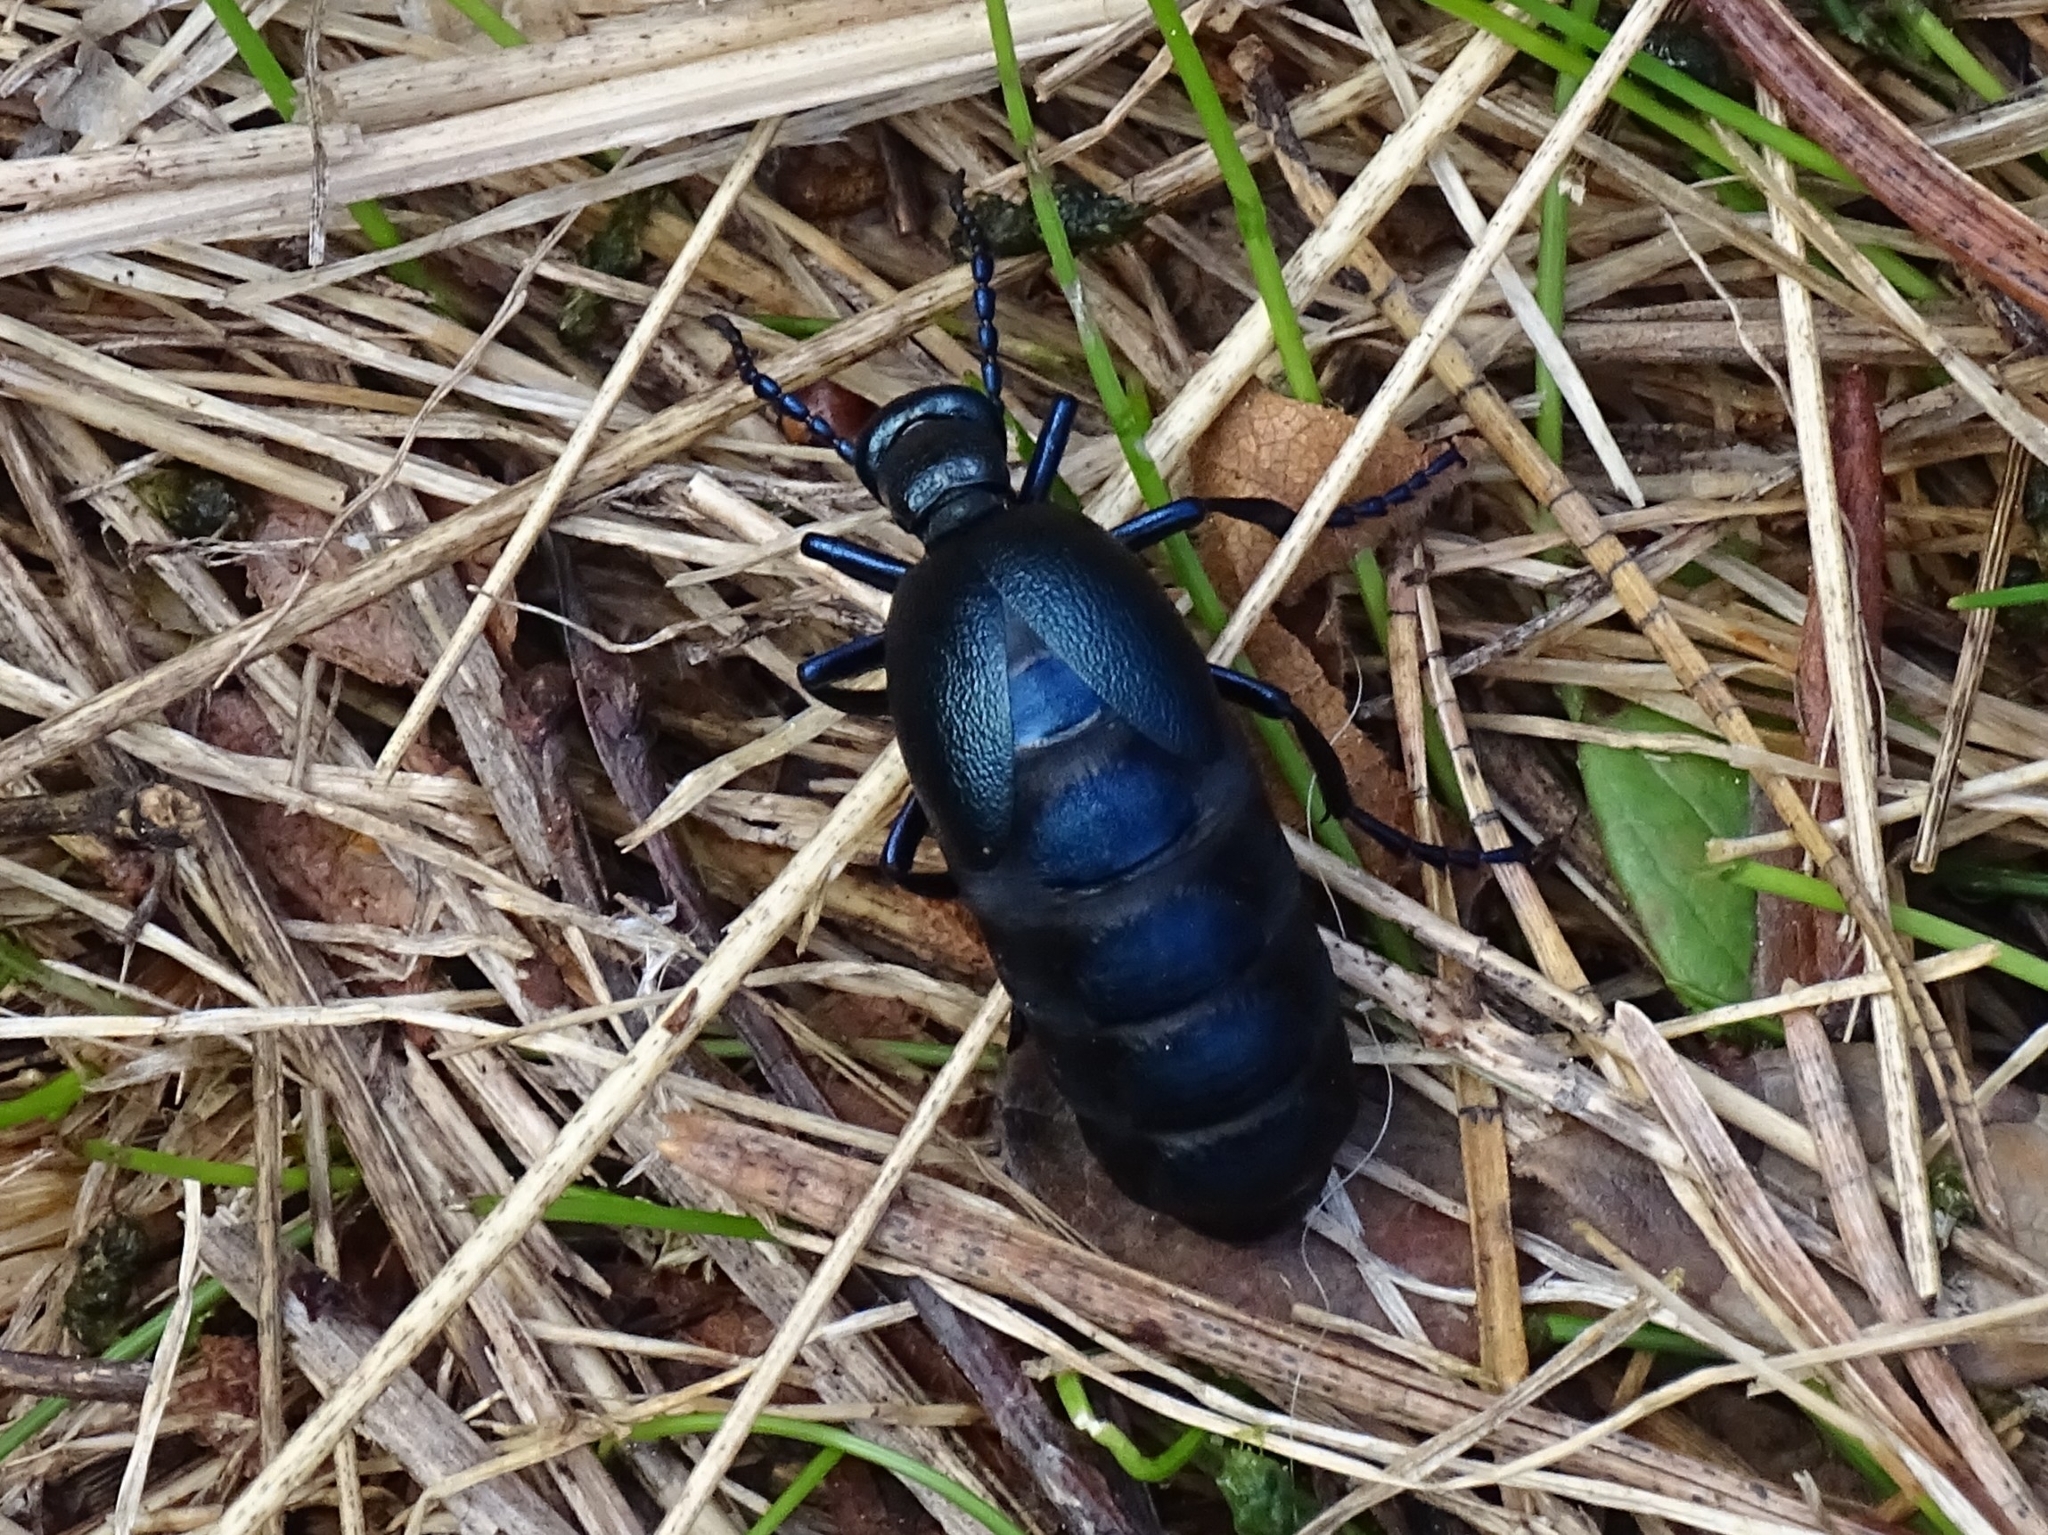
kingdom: Animalia
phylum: Arthropoda
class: Insecta
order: Coleoptera
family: Meloidae
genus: Meloe
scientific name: Meloe violaceus
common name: Violet oil-beetle
